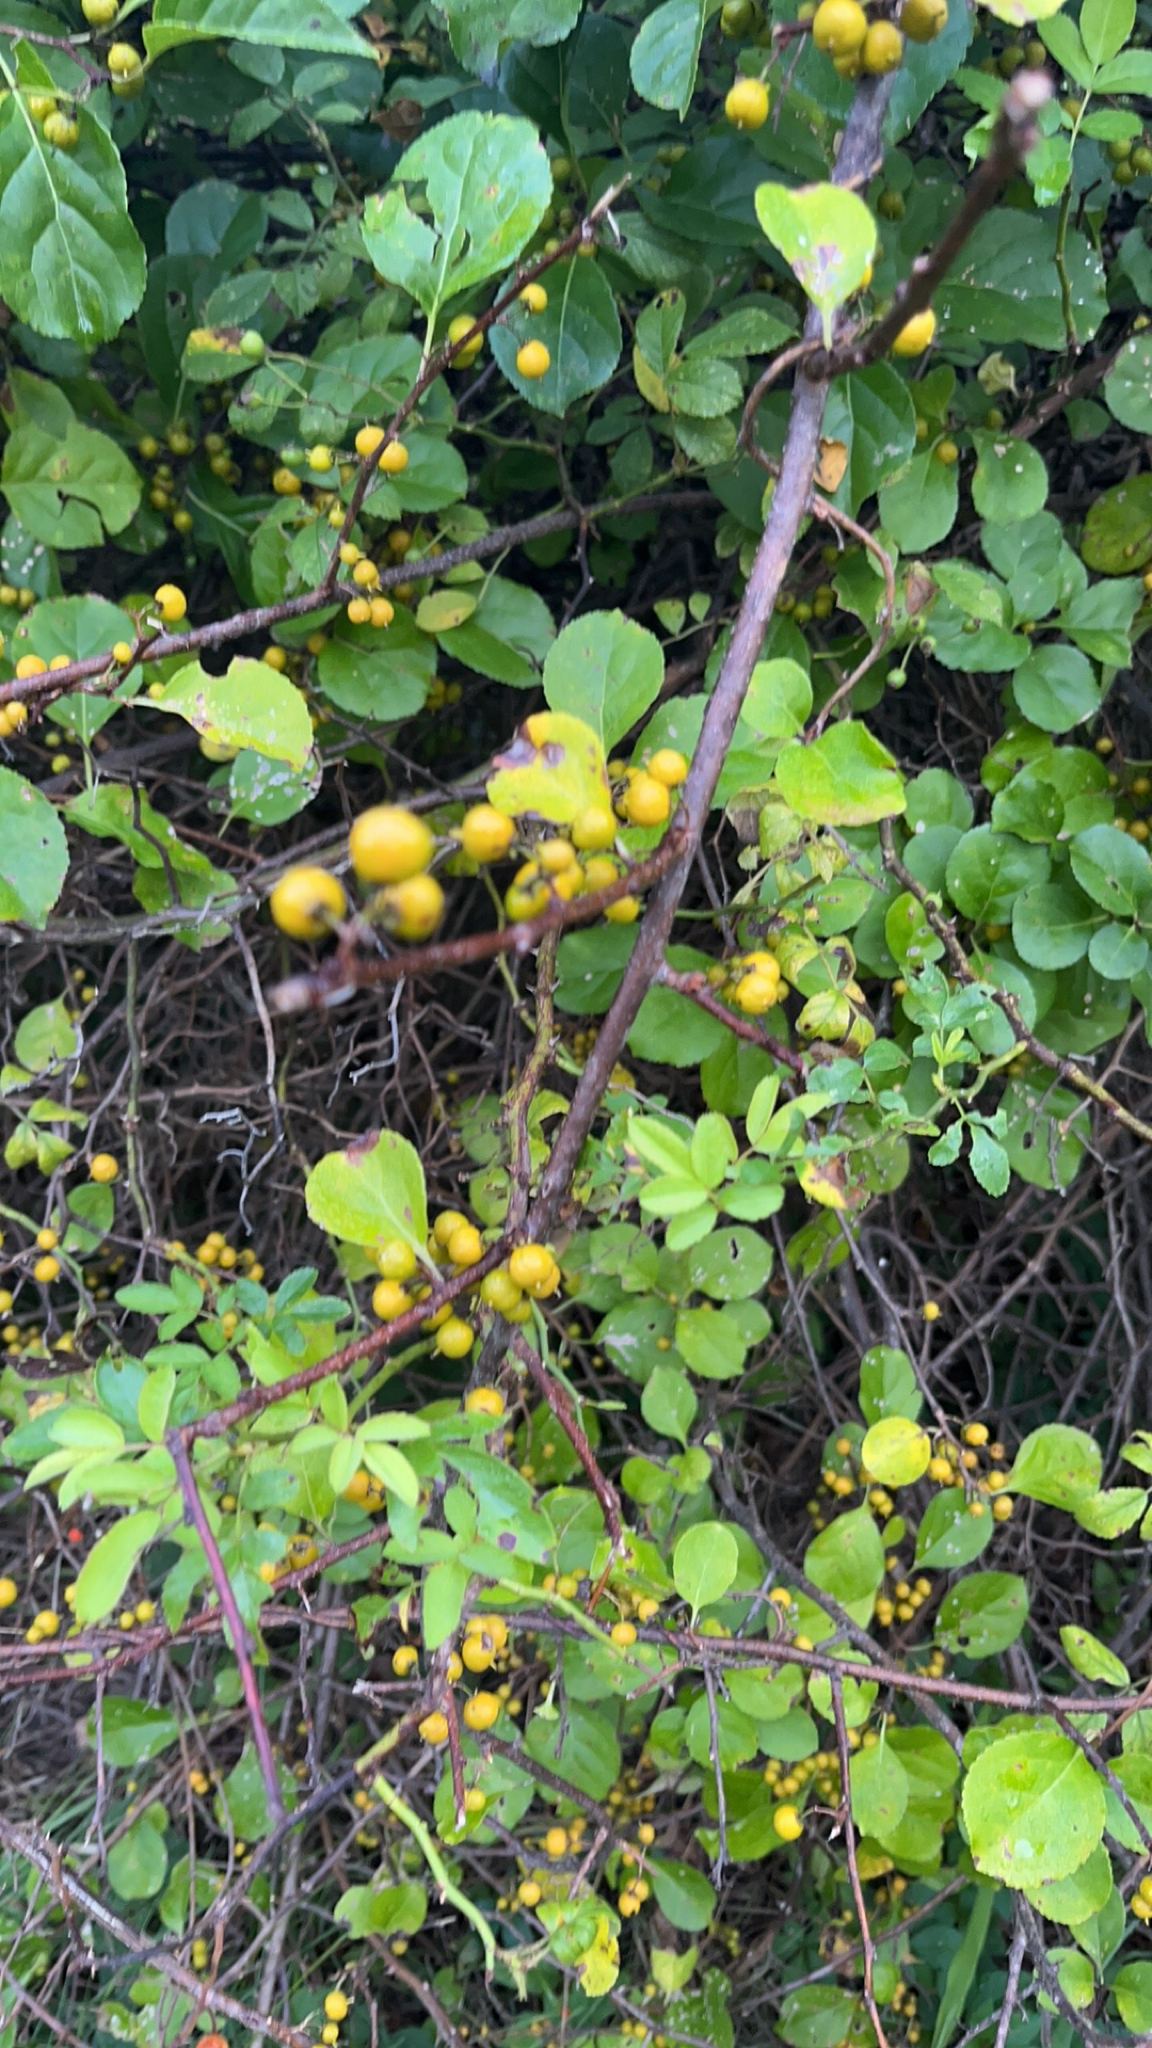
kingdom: Plantae
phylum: Tracheophyta
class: Magnoliopsida
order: Celastrales
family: Celastraceae
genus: Celastrus
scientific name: Celastrus orbiculatus
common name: Oriental bittersweet
